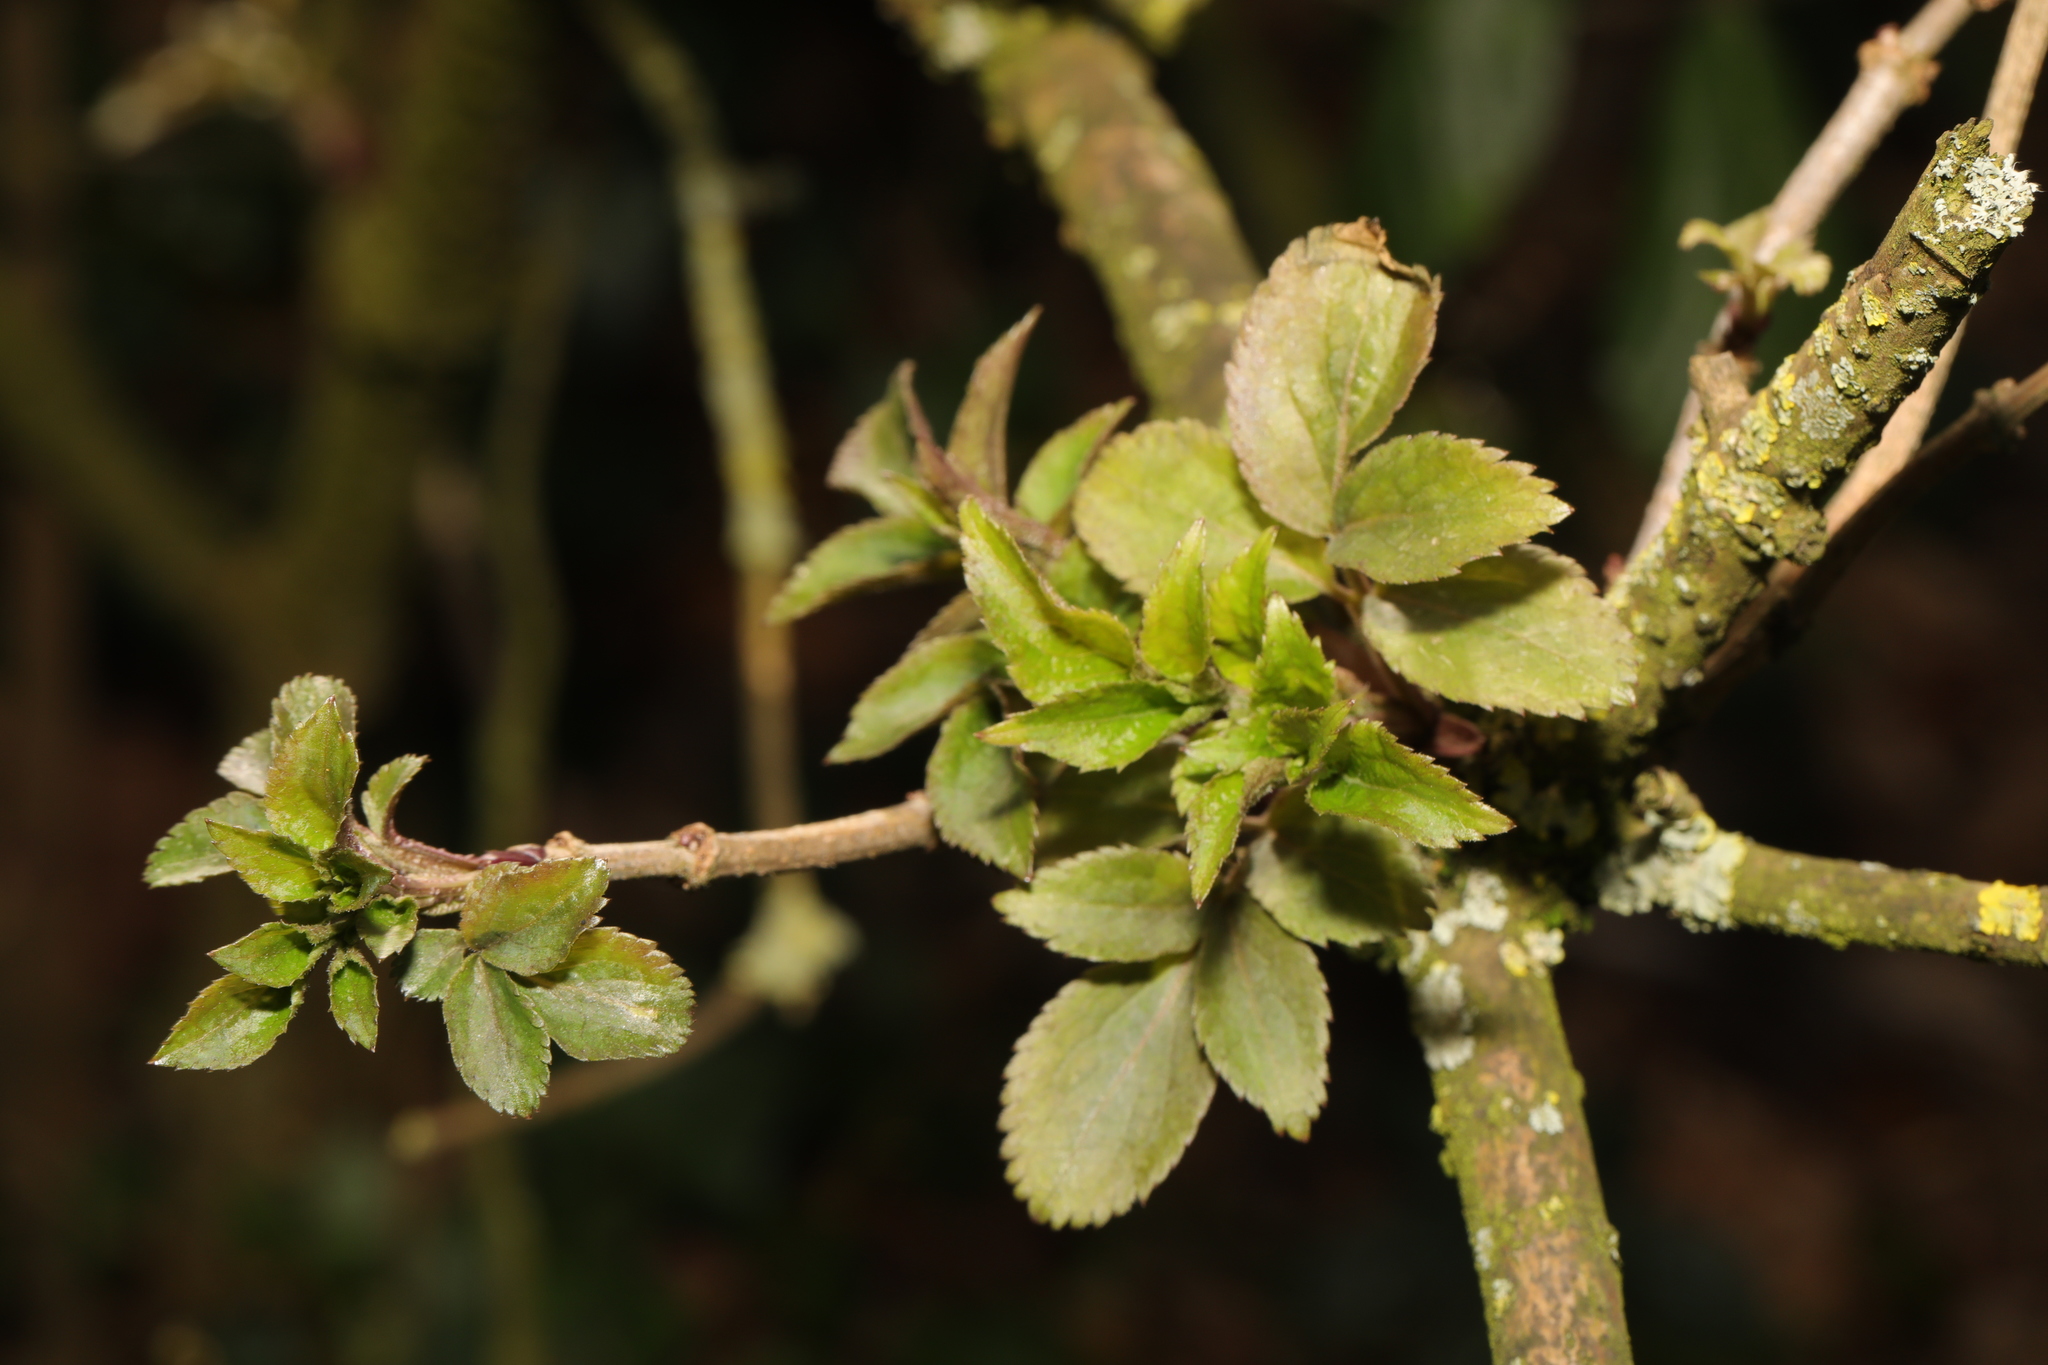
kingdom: Plantae
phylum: Tracheophyta
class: Magnoliopsida
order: Dipsacales
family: Viburnaceae
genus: Sambucus
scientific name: Sambucus nigra
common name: Elder
